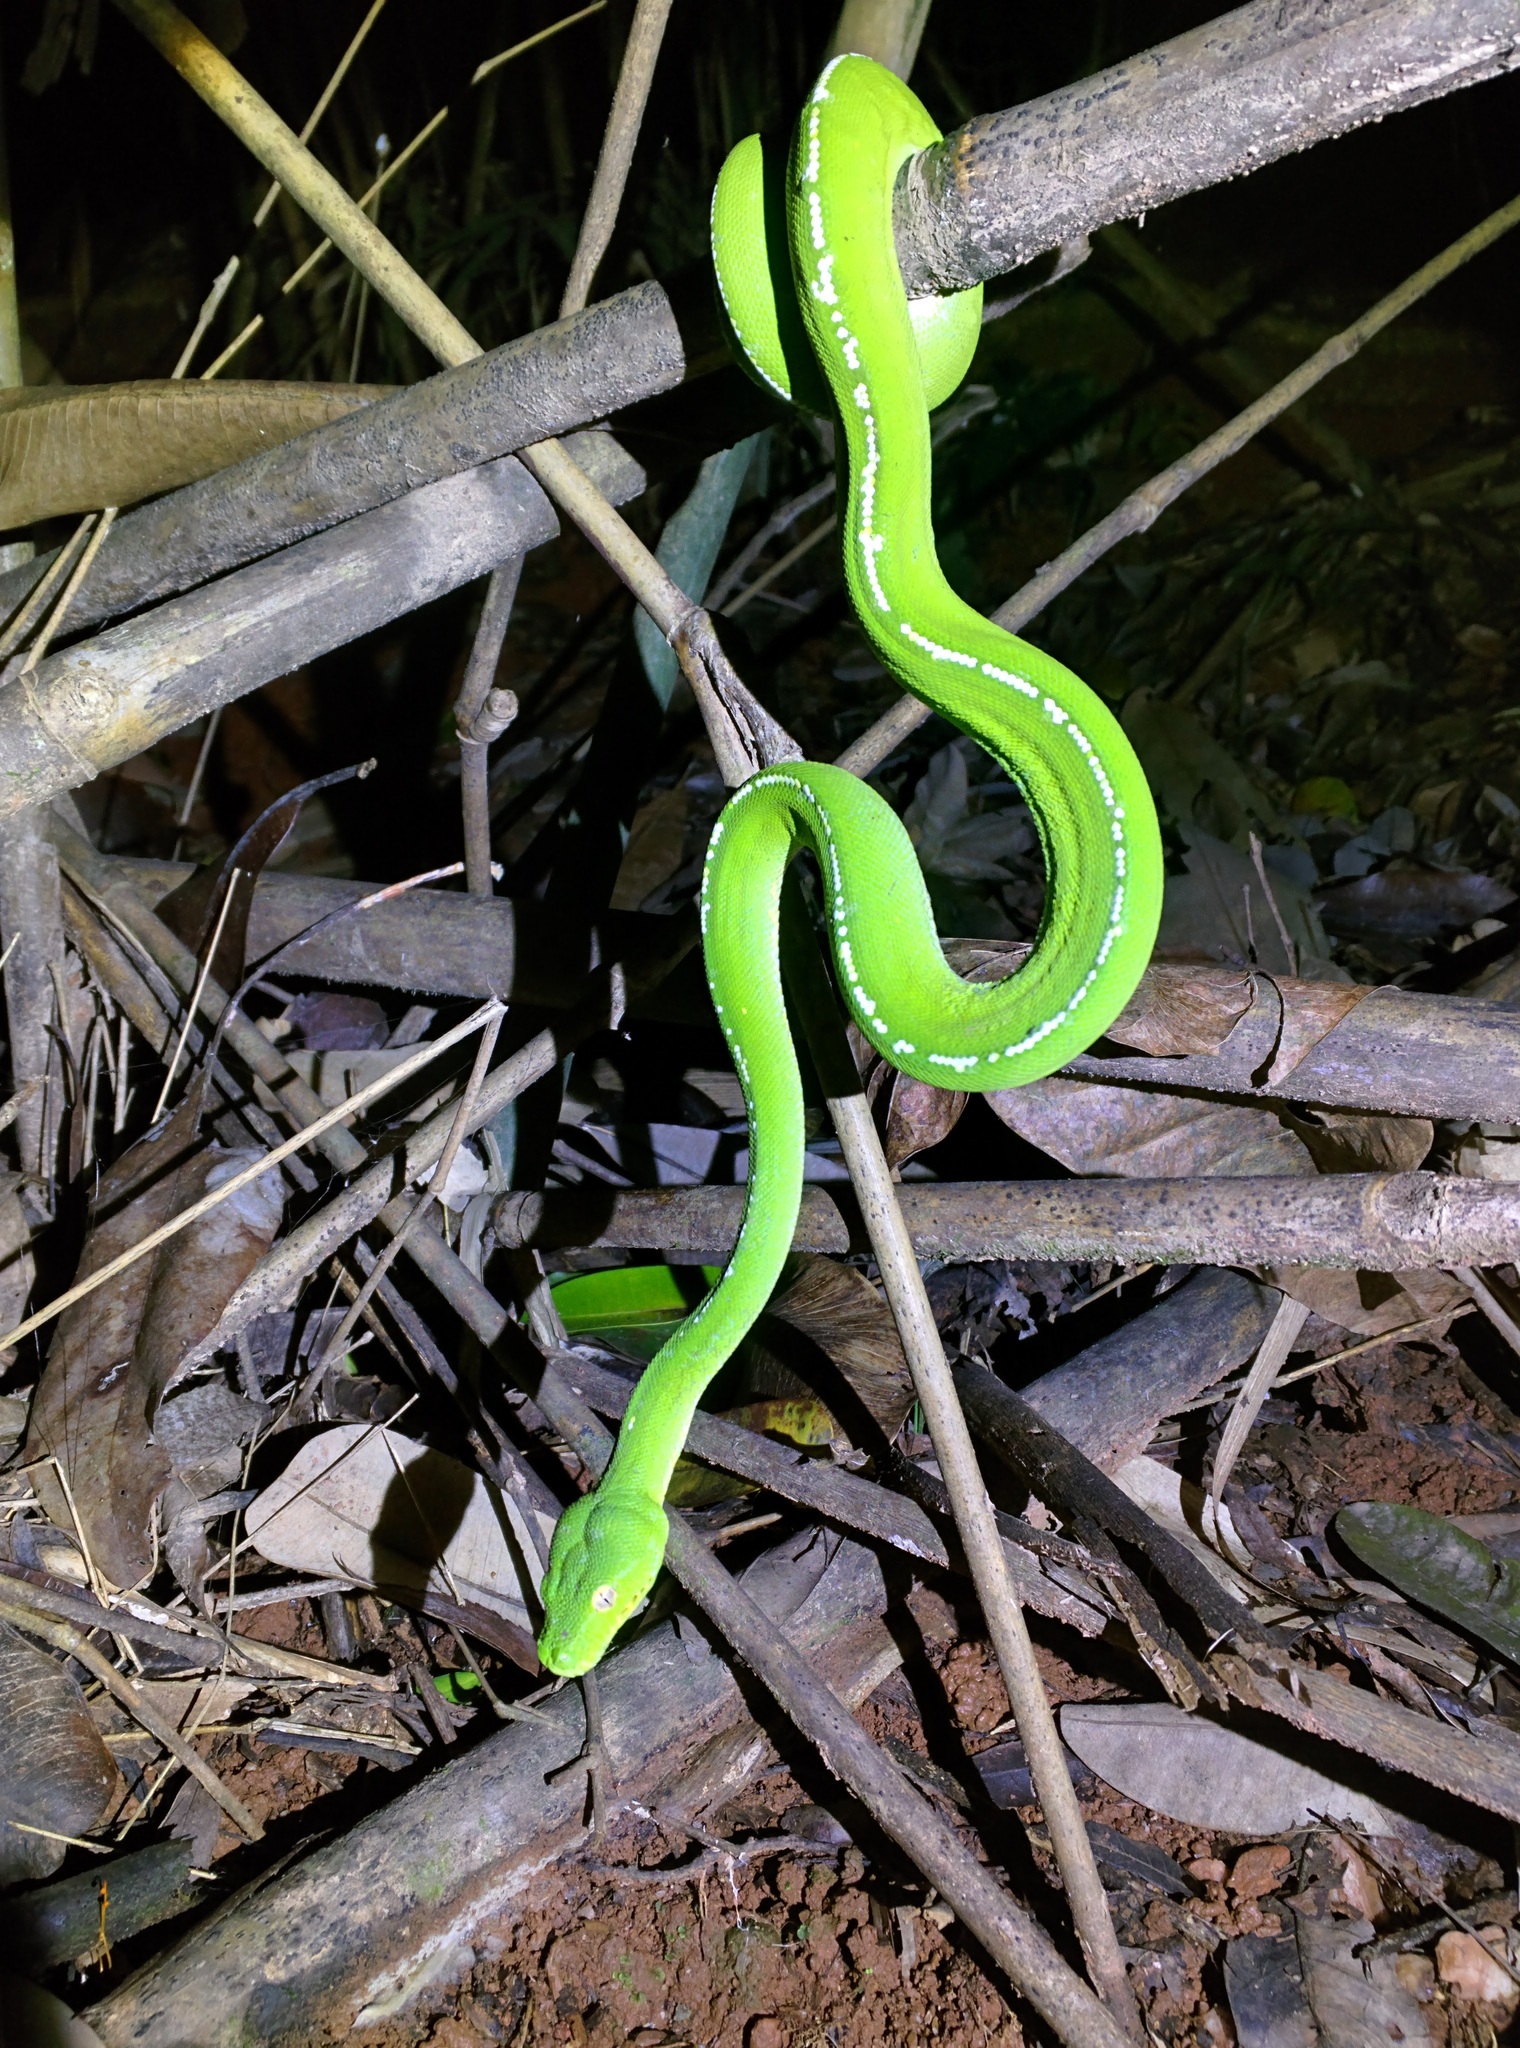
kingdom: Animalia
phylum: Chordata
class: Squamata
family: Pythonidae
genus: Morelia
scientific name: Morelia viridis
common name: Green tree python
